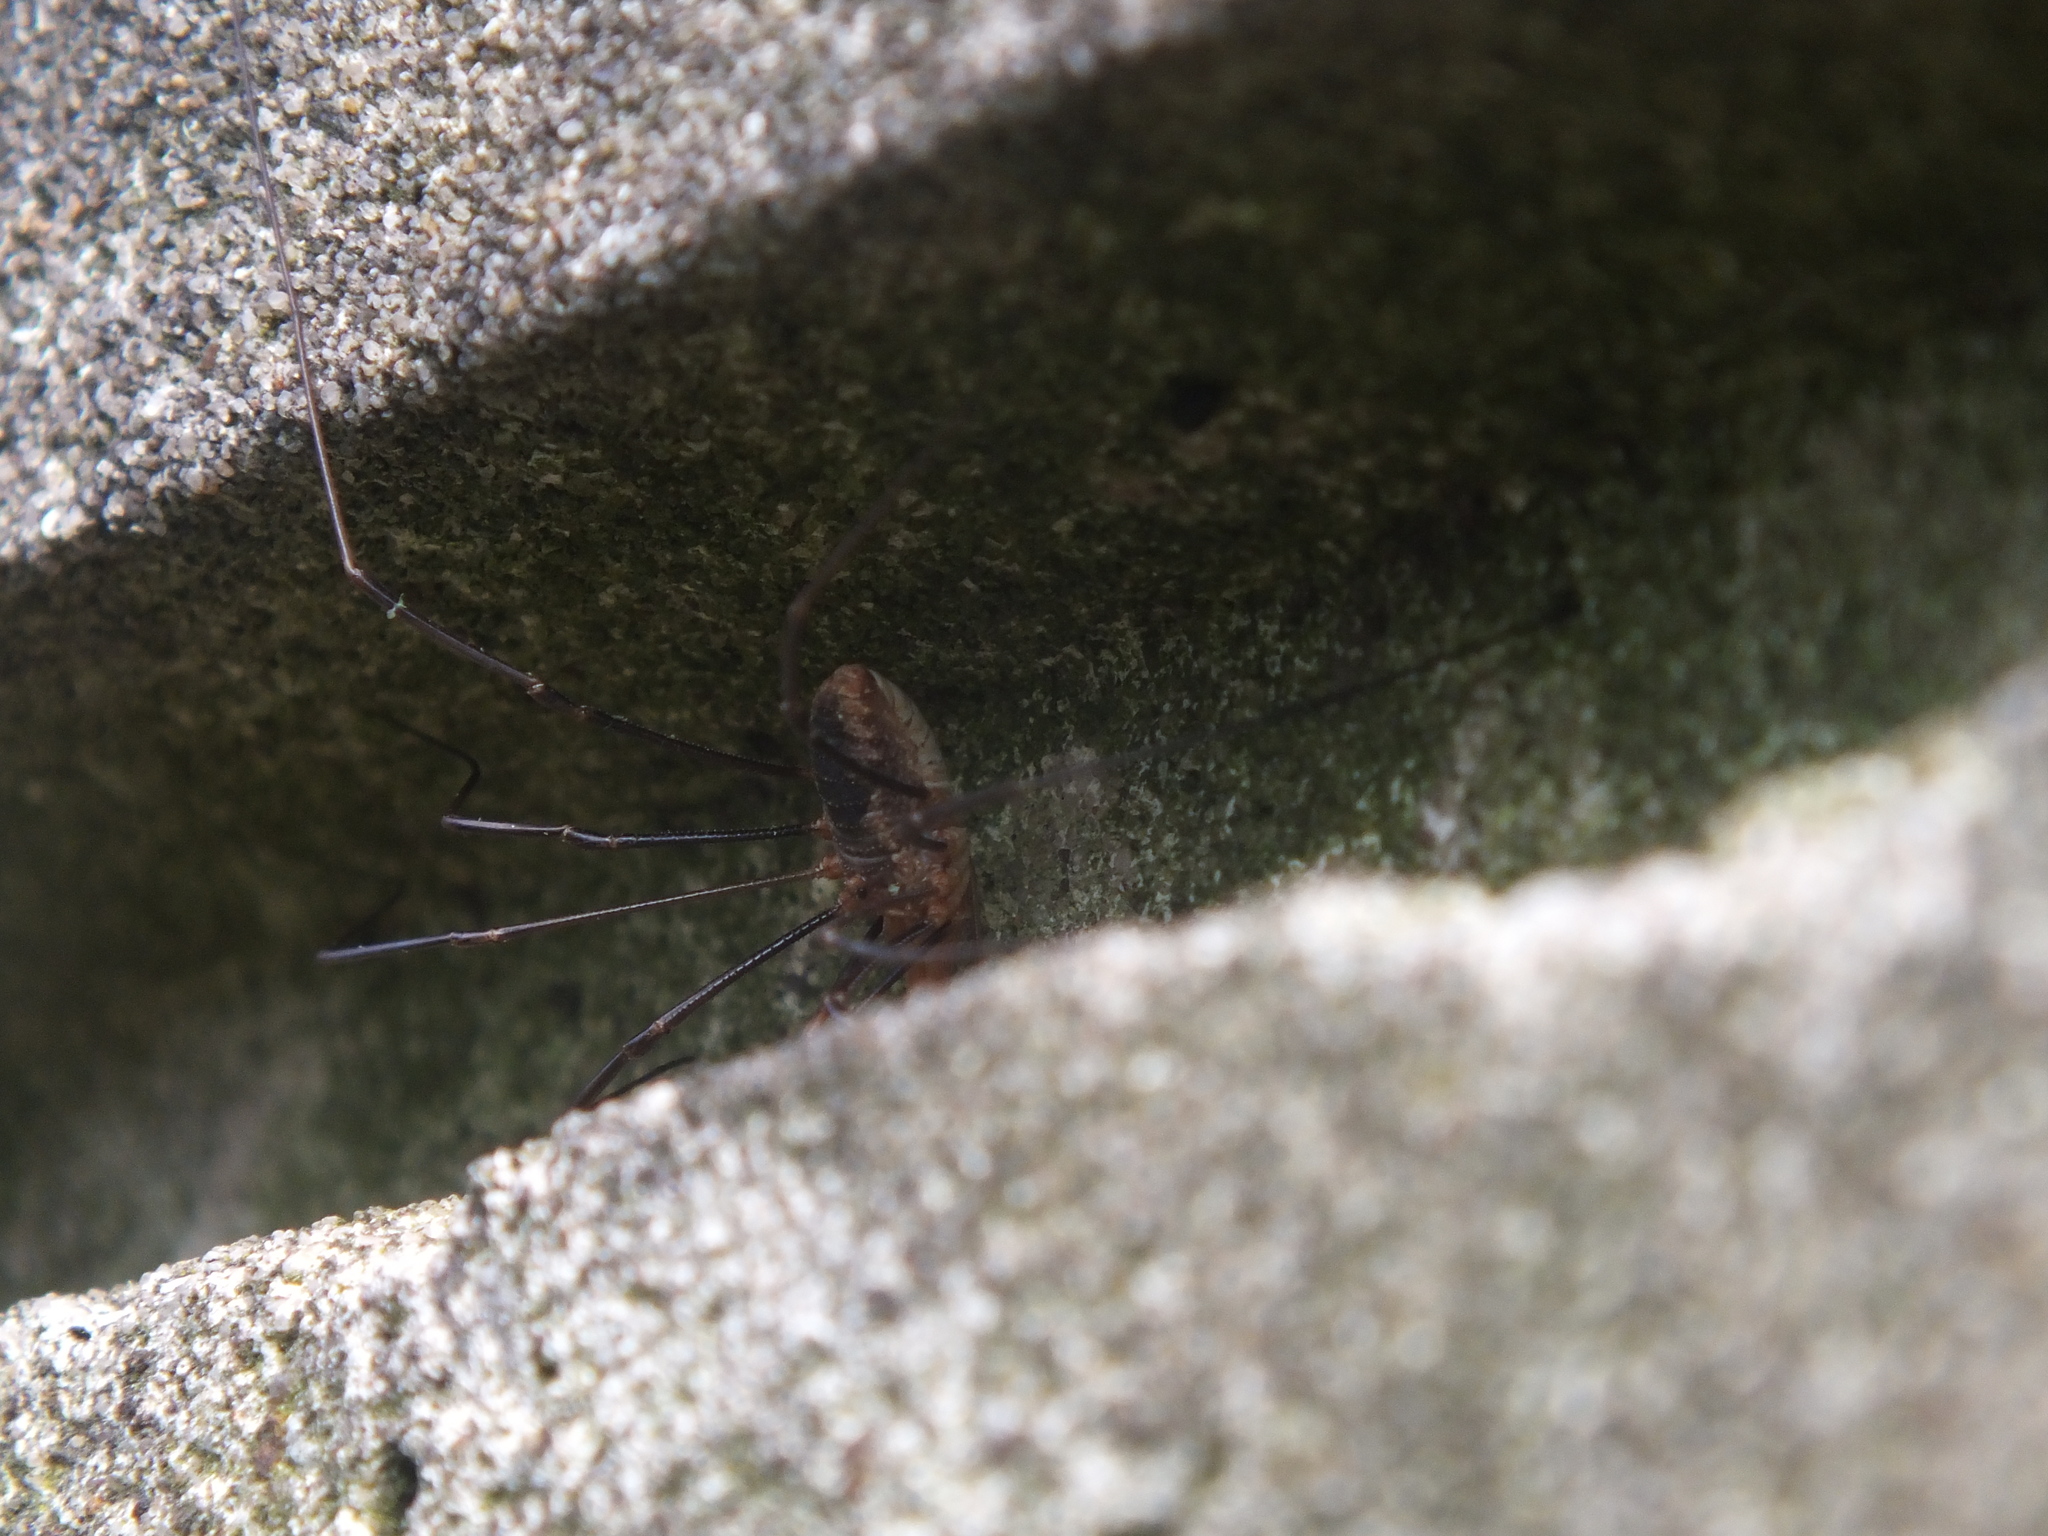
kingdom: Animalia
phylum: Arthropoda
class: Arachnida
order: Opiliones
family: Phalangiidae
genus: Phalangium
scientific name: Phalangium opilio
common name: Daddy longleg
